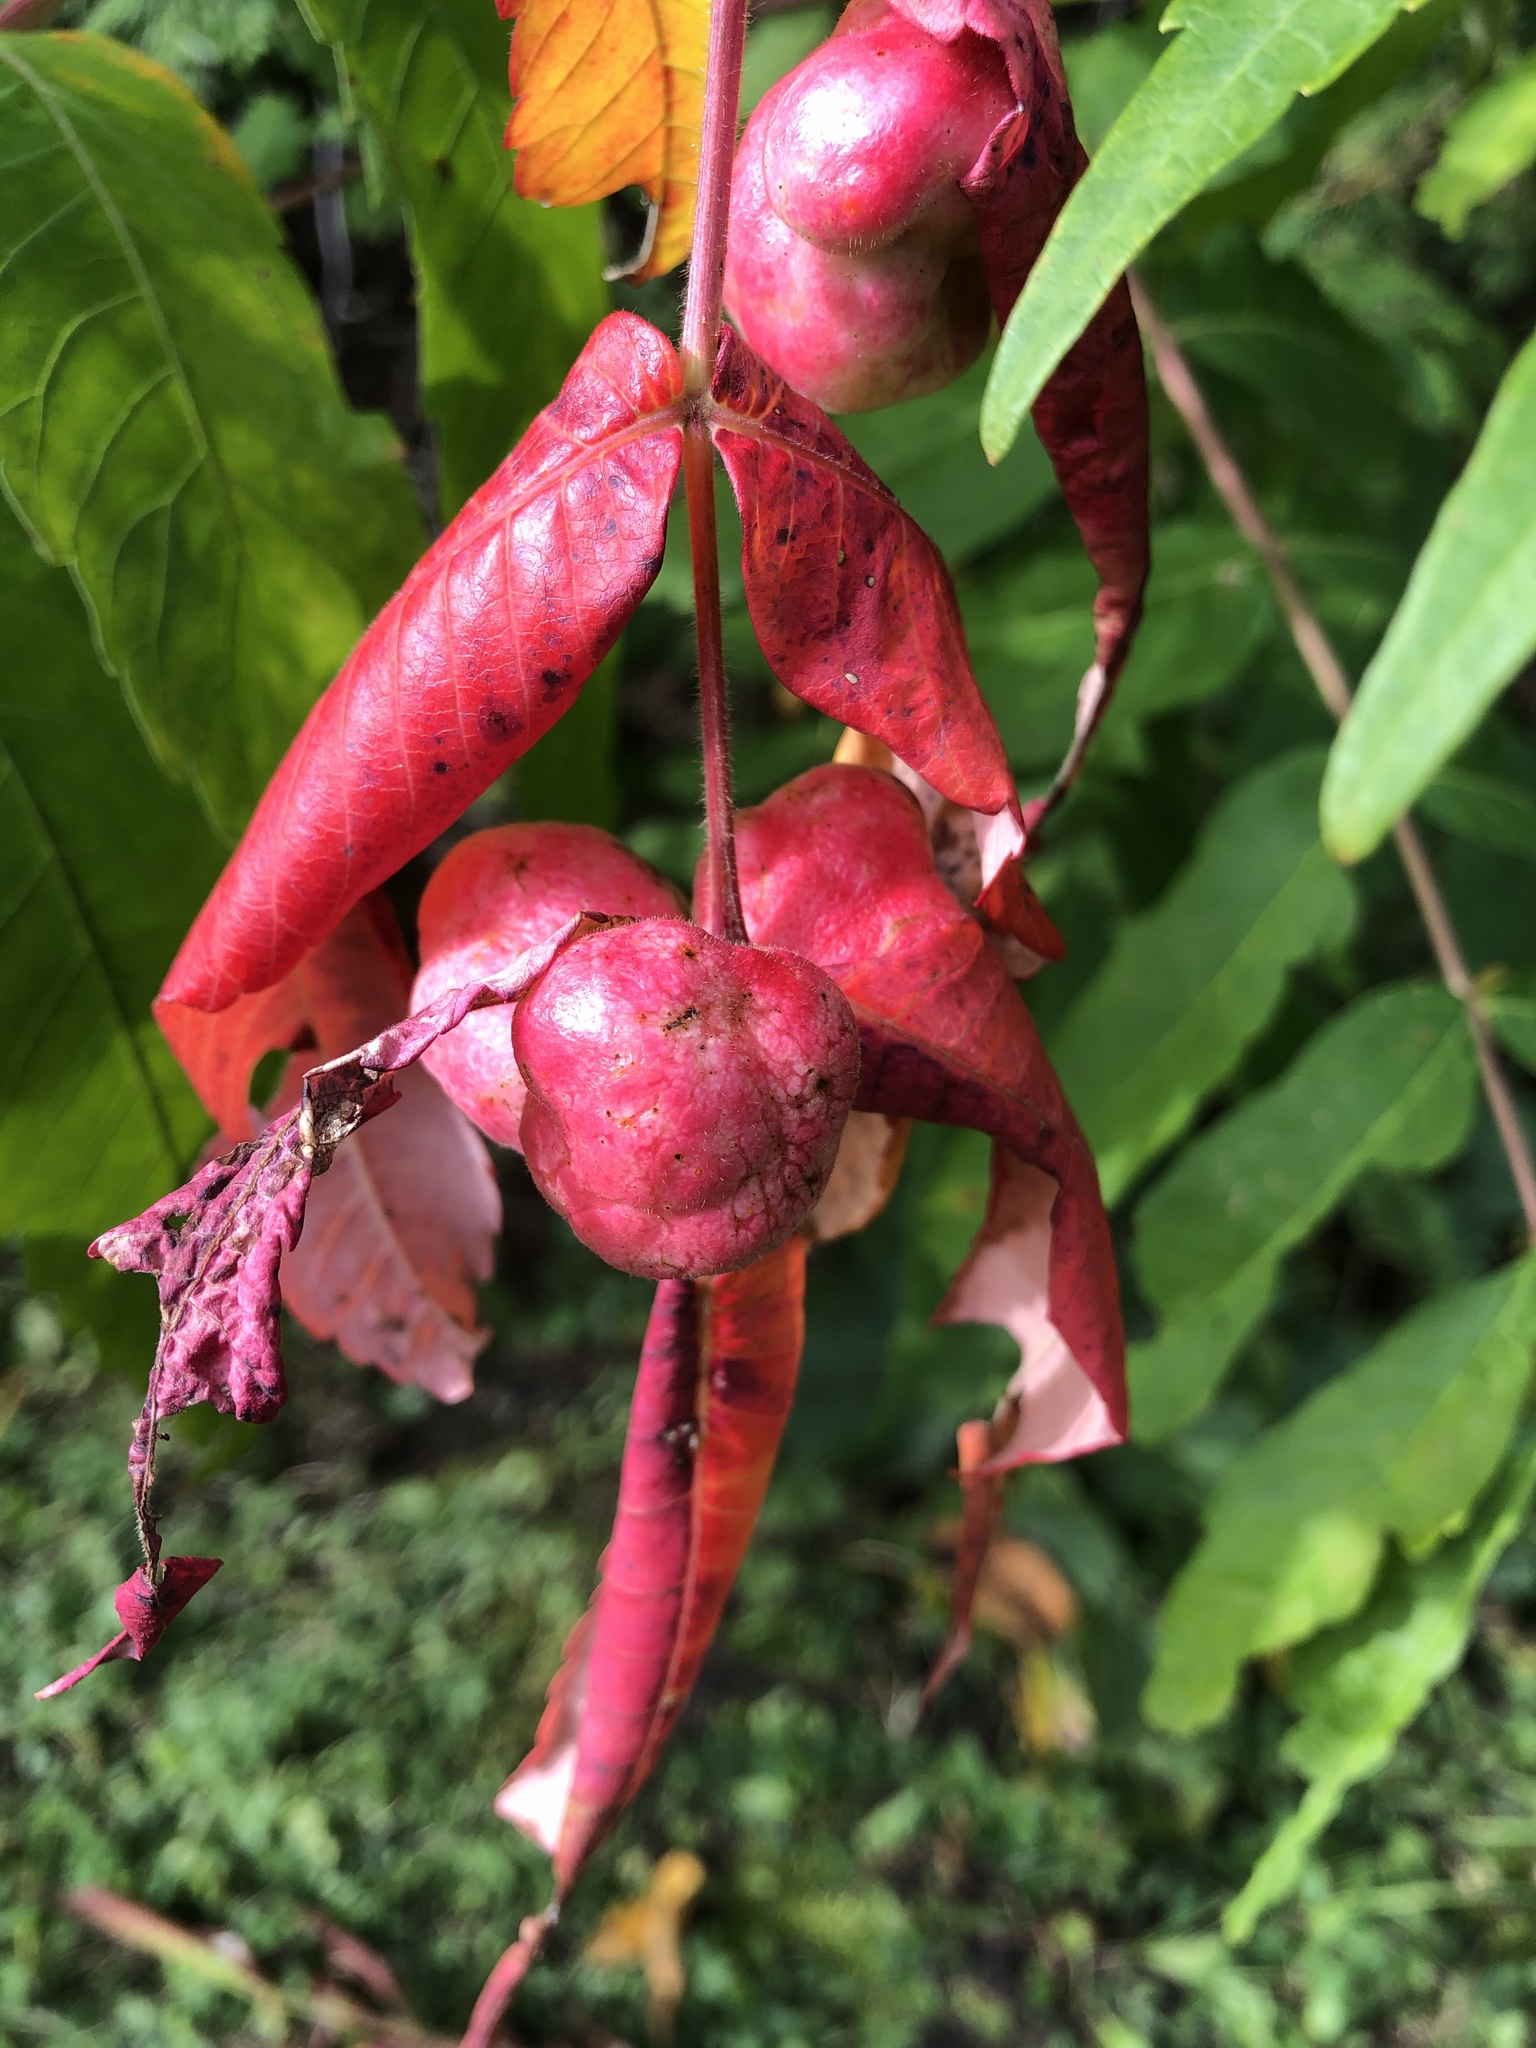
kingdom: Animalia
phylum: Arthropoda
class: Insecta
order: Hemiptera
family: Aphididae
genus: Melaphis
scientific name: Melaphis rhois
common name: Sumac gall aphid
